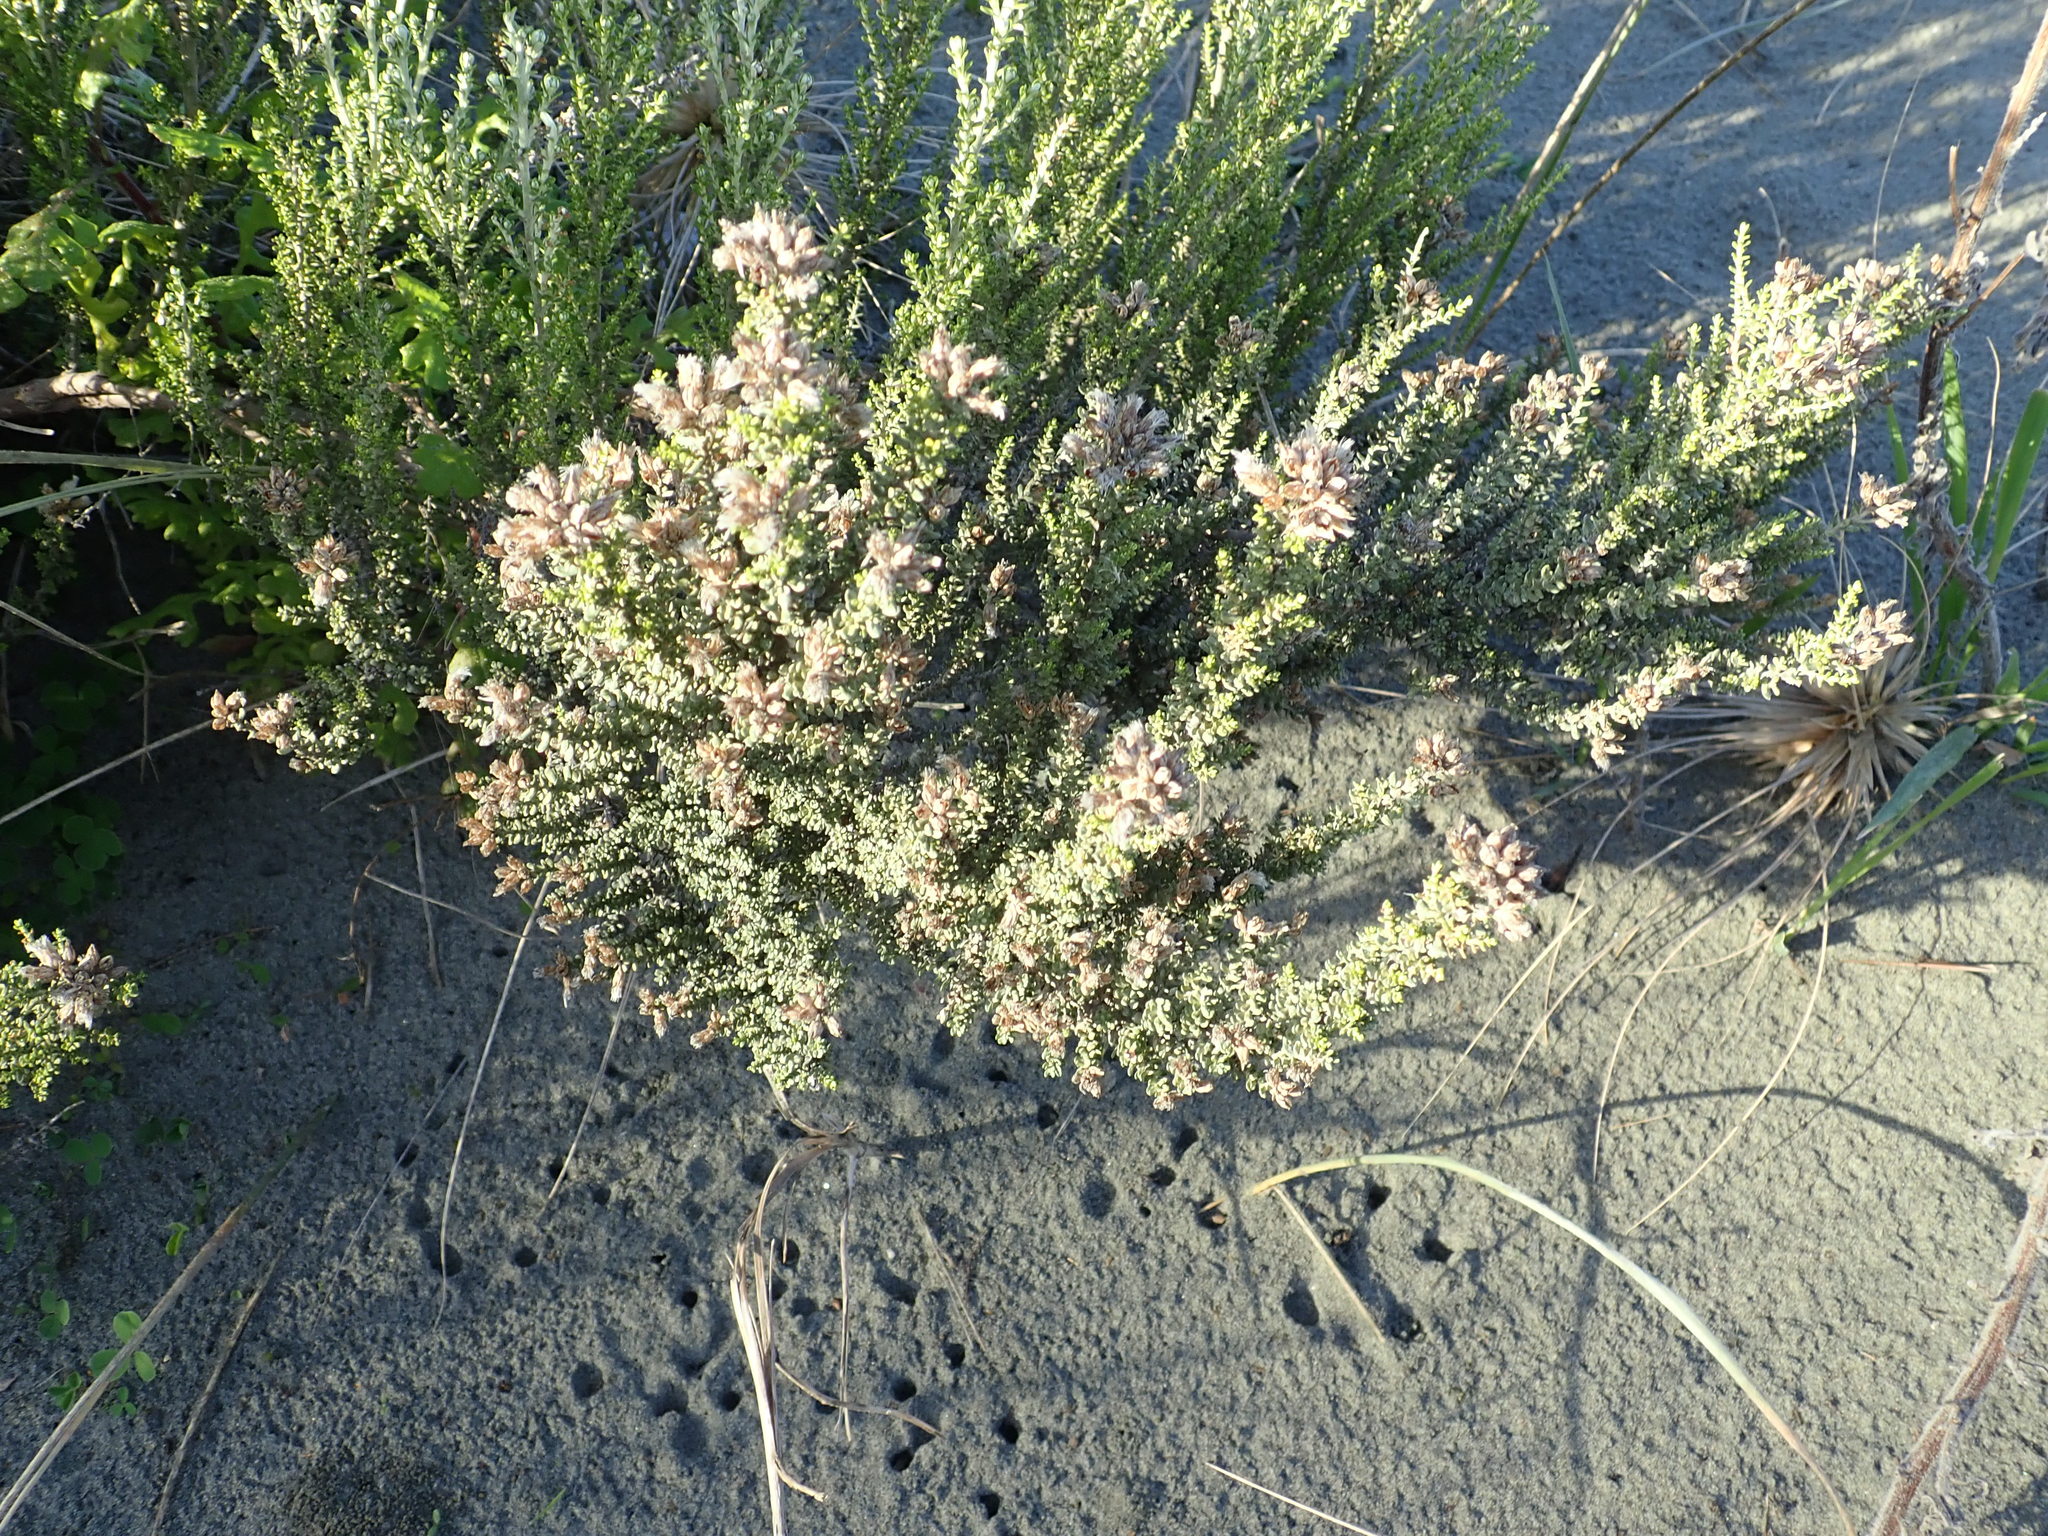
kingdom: Plantae
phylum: Tracheophyta
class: Magnoliopsida
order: Asterales
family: Asteraceae
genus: Ozothamnus
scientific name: Ozothamnus leptophyllus
